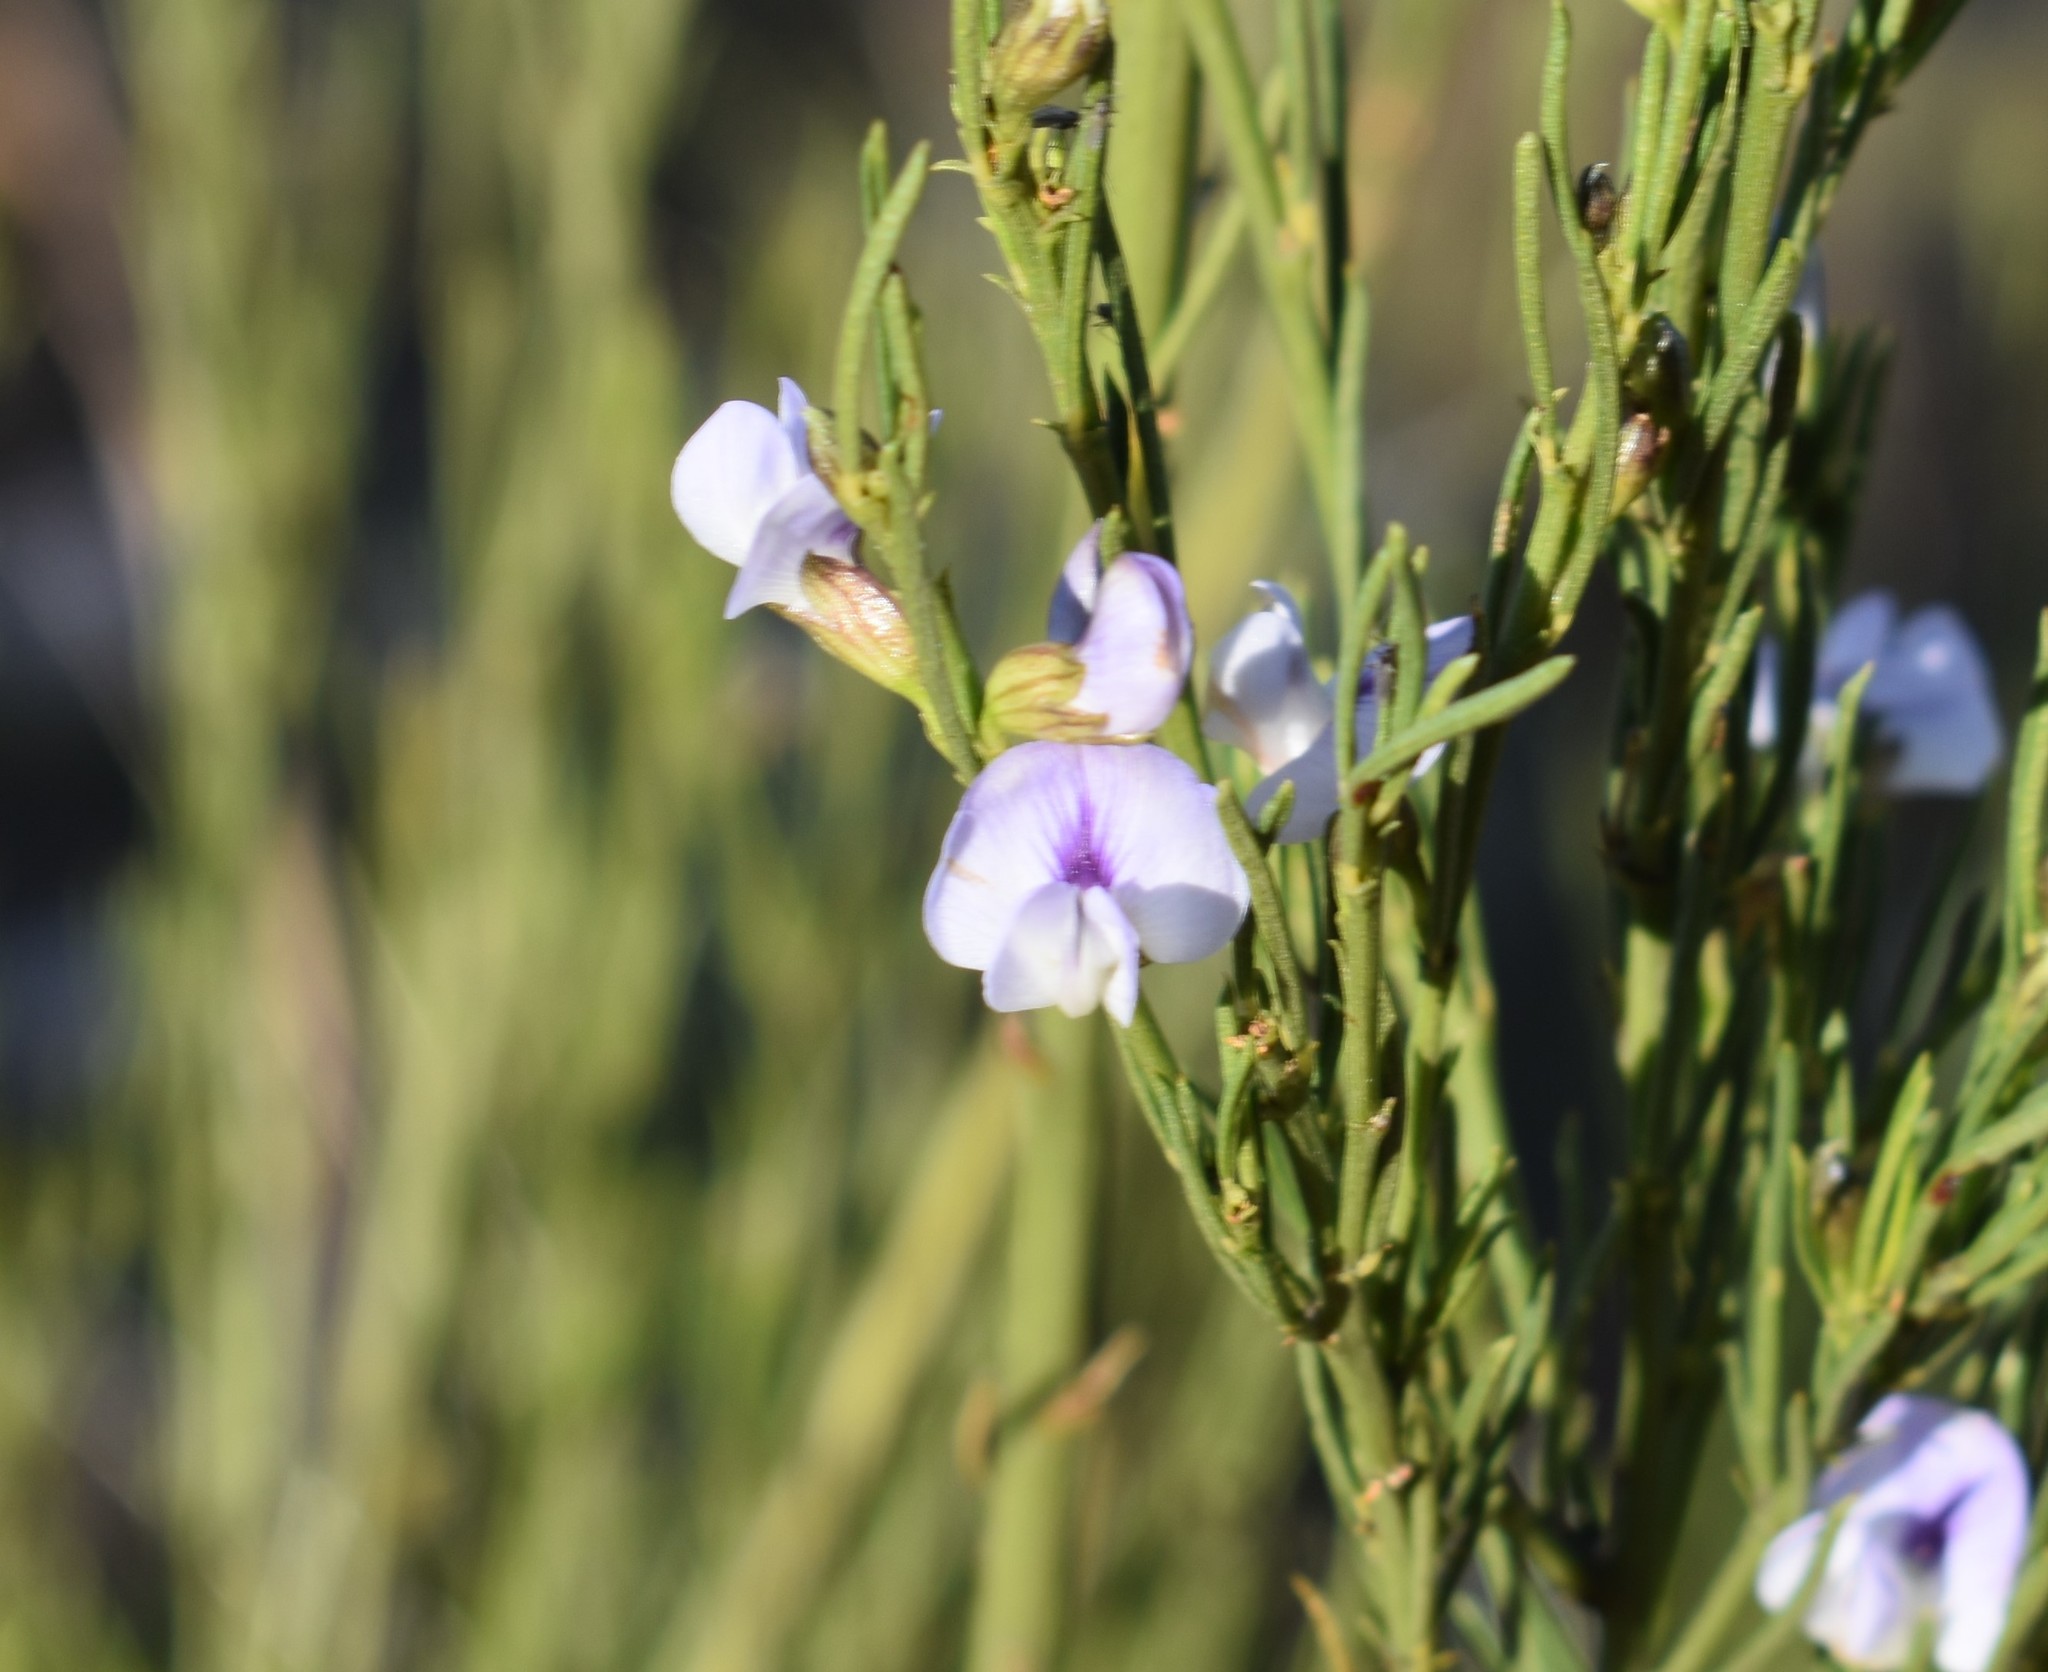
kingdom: Plantae
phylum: Tracheophyta
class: Magnoliopsida
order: Fabales
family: Fabaceae
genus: Psoralea
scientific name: Psoralea diturnerae
